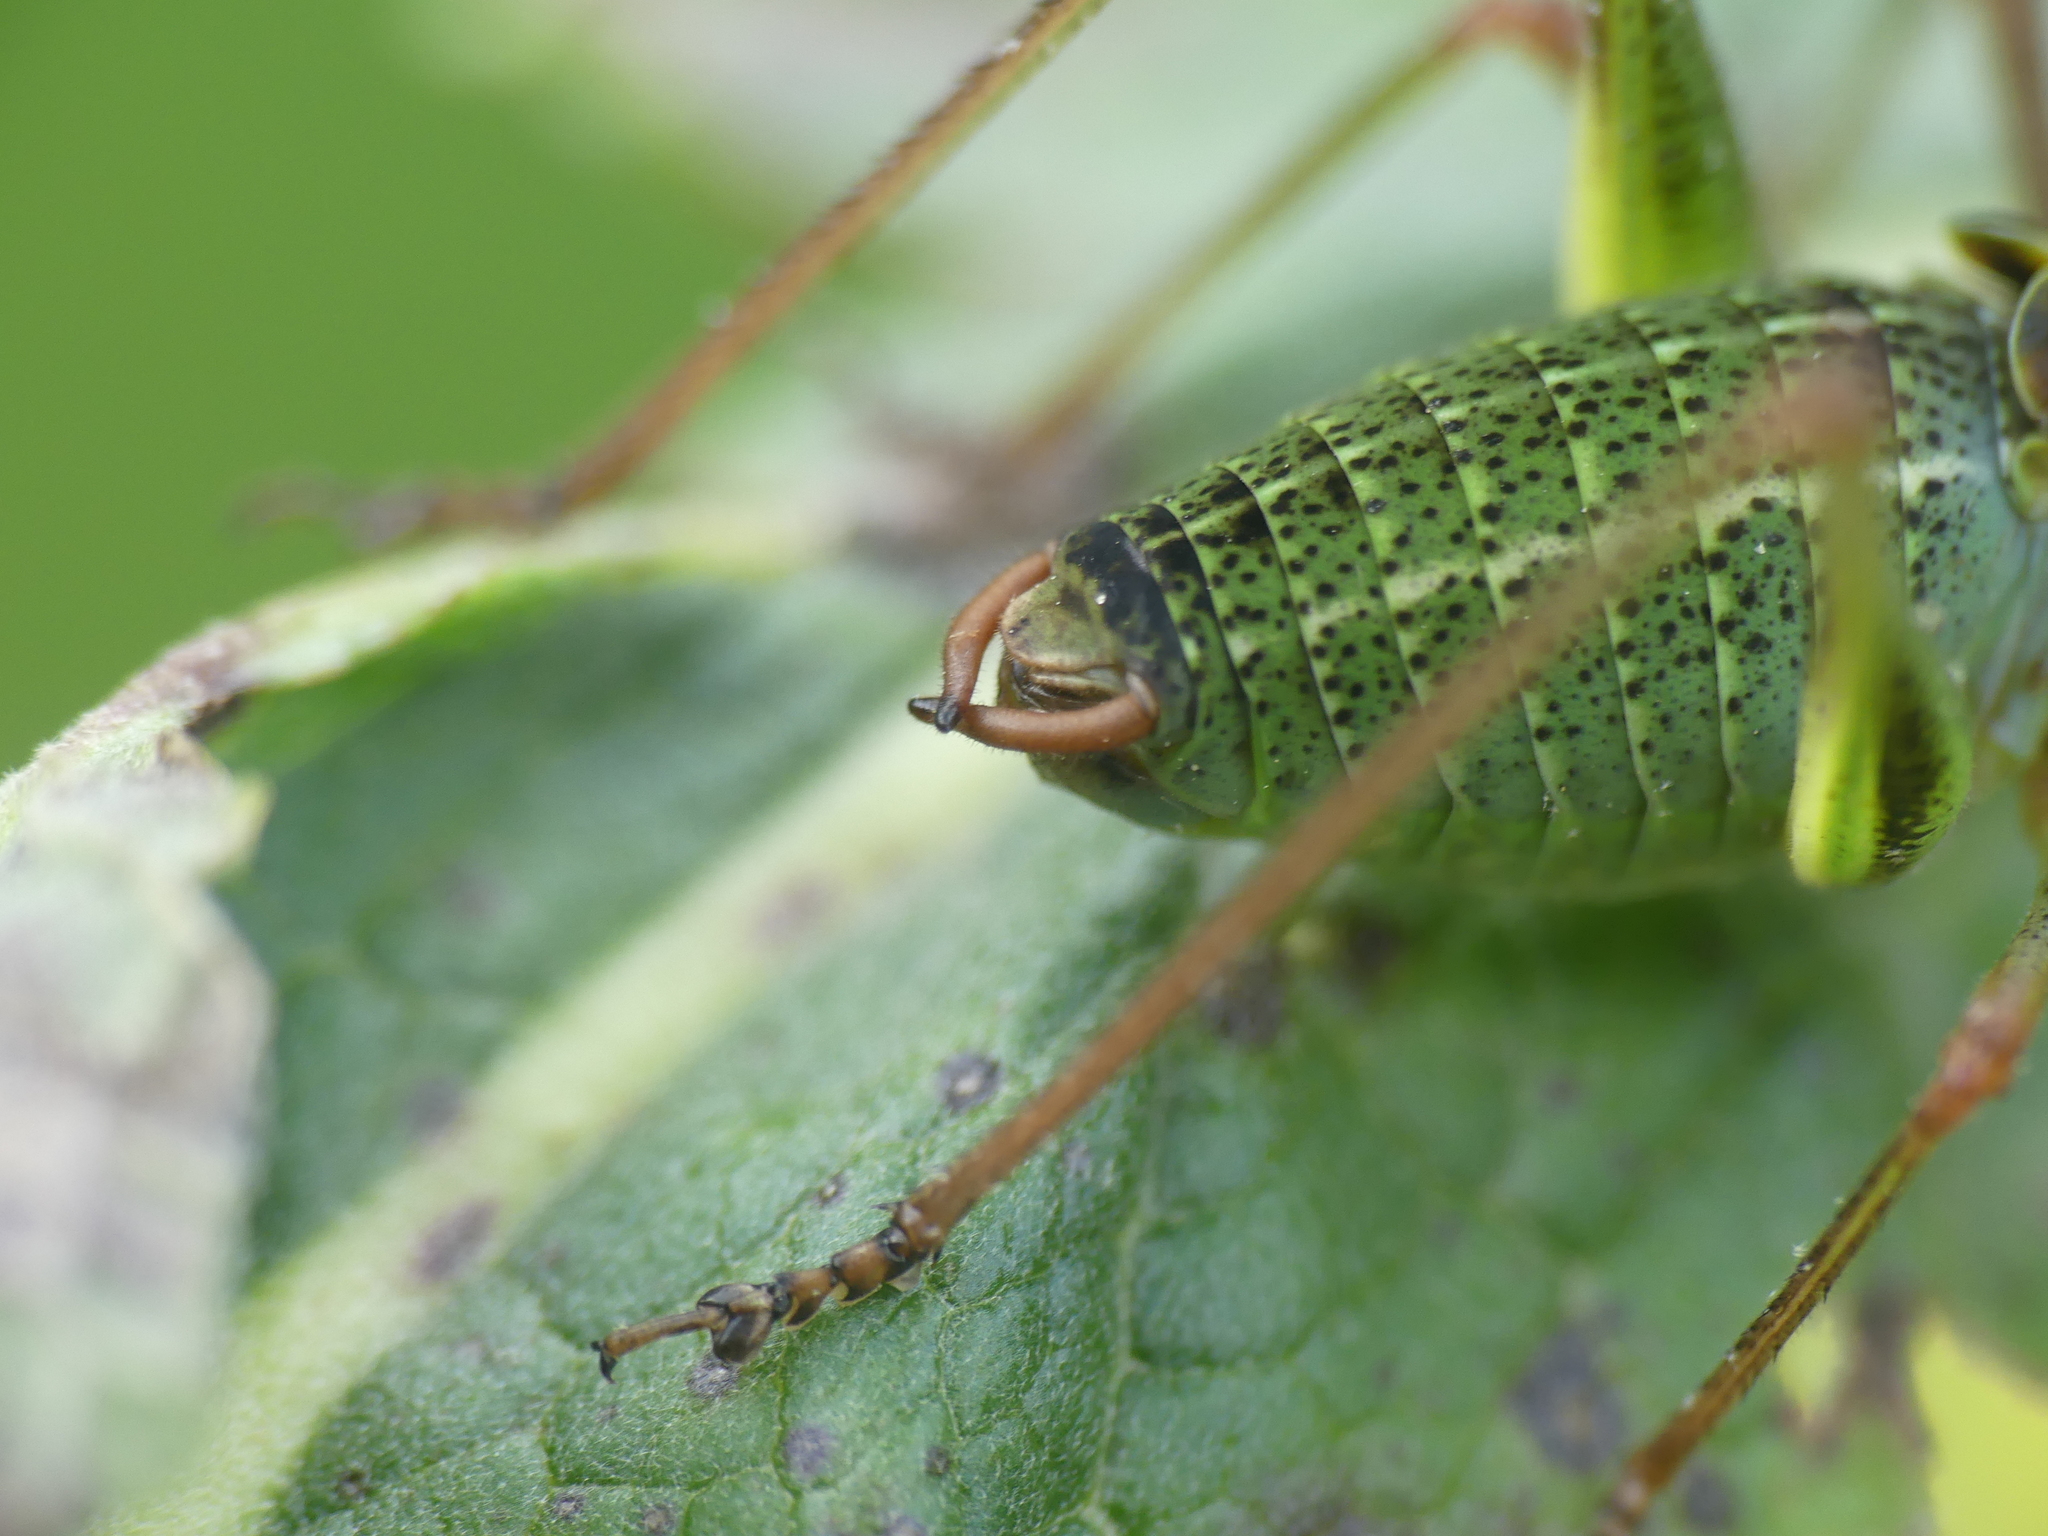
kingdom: Animalia
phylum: Arthropoda
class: Insecta
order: Orthoptera
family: Tettigoniidae
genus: Barbitistes
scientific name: Barbitistes obtusus
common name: Alpine saw bush-cricket
